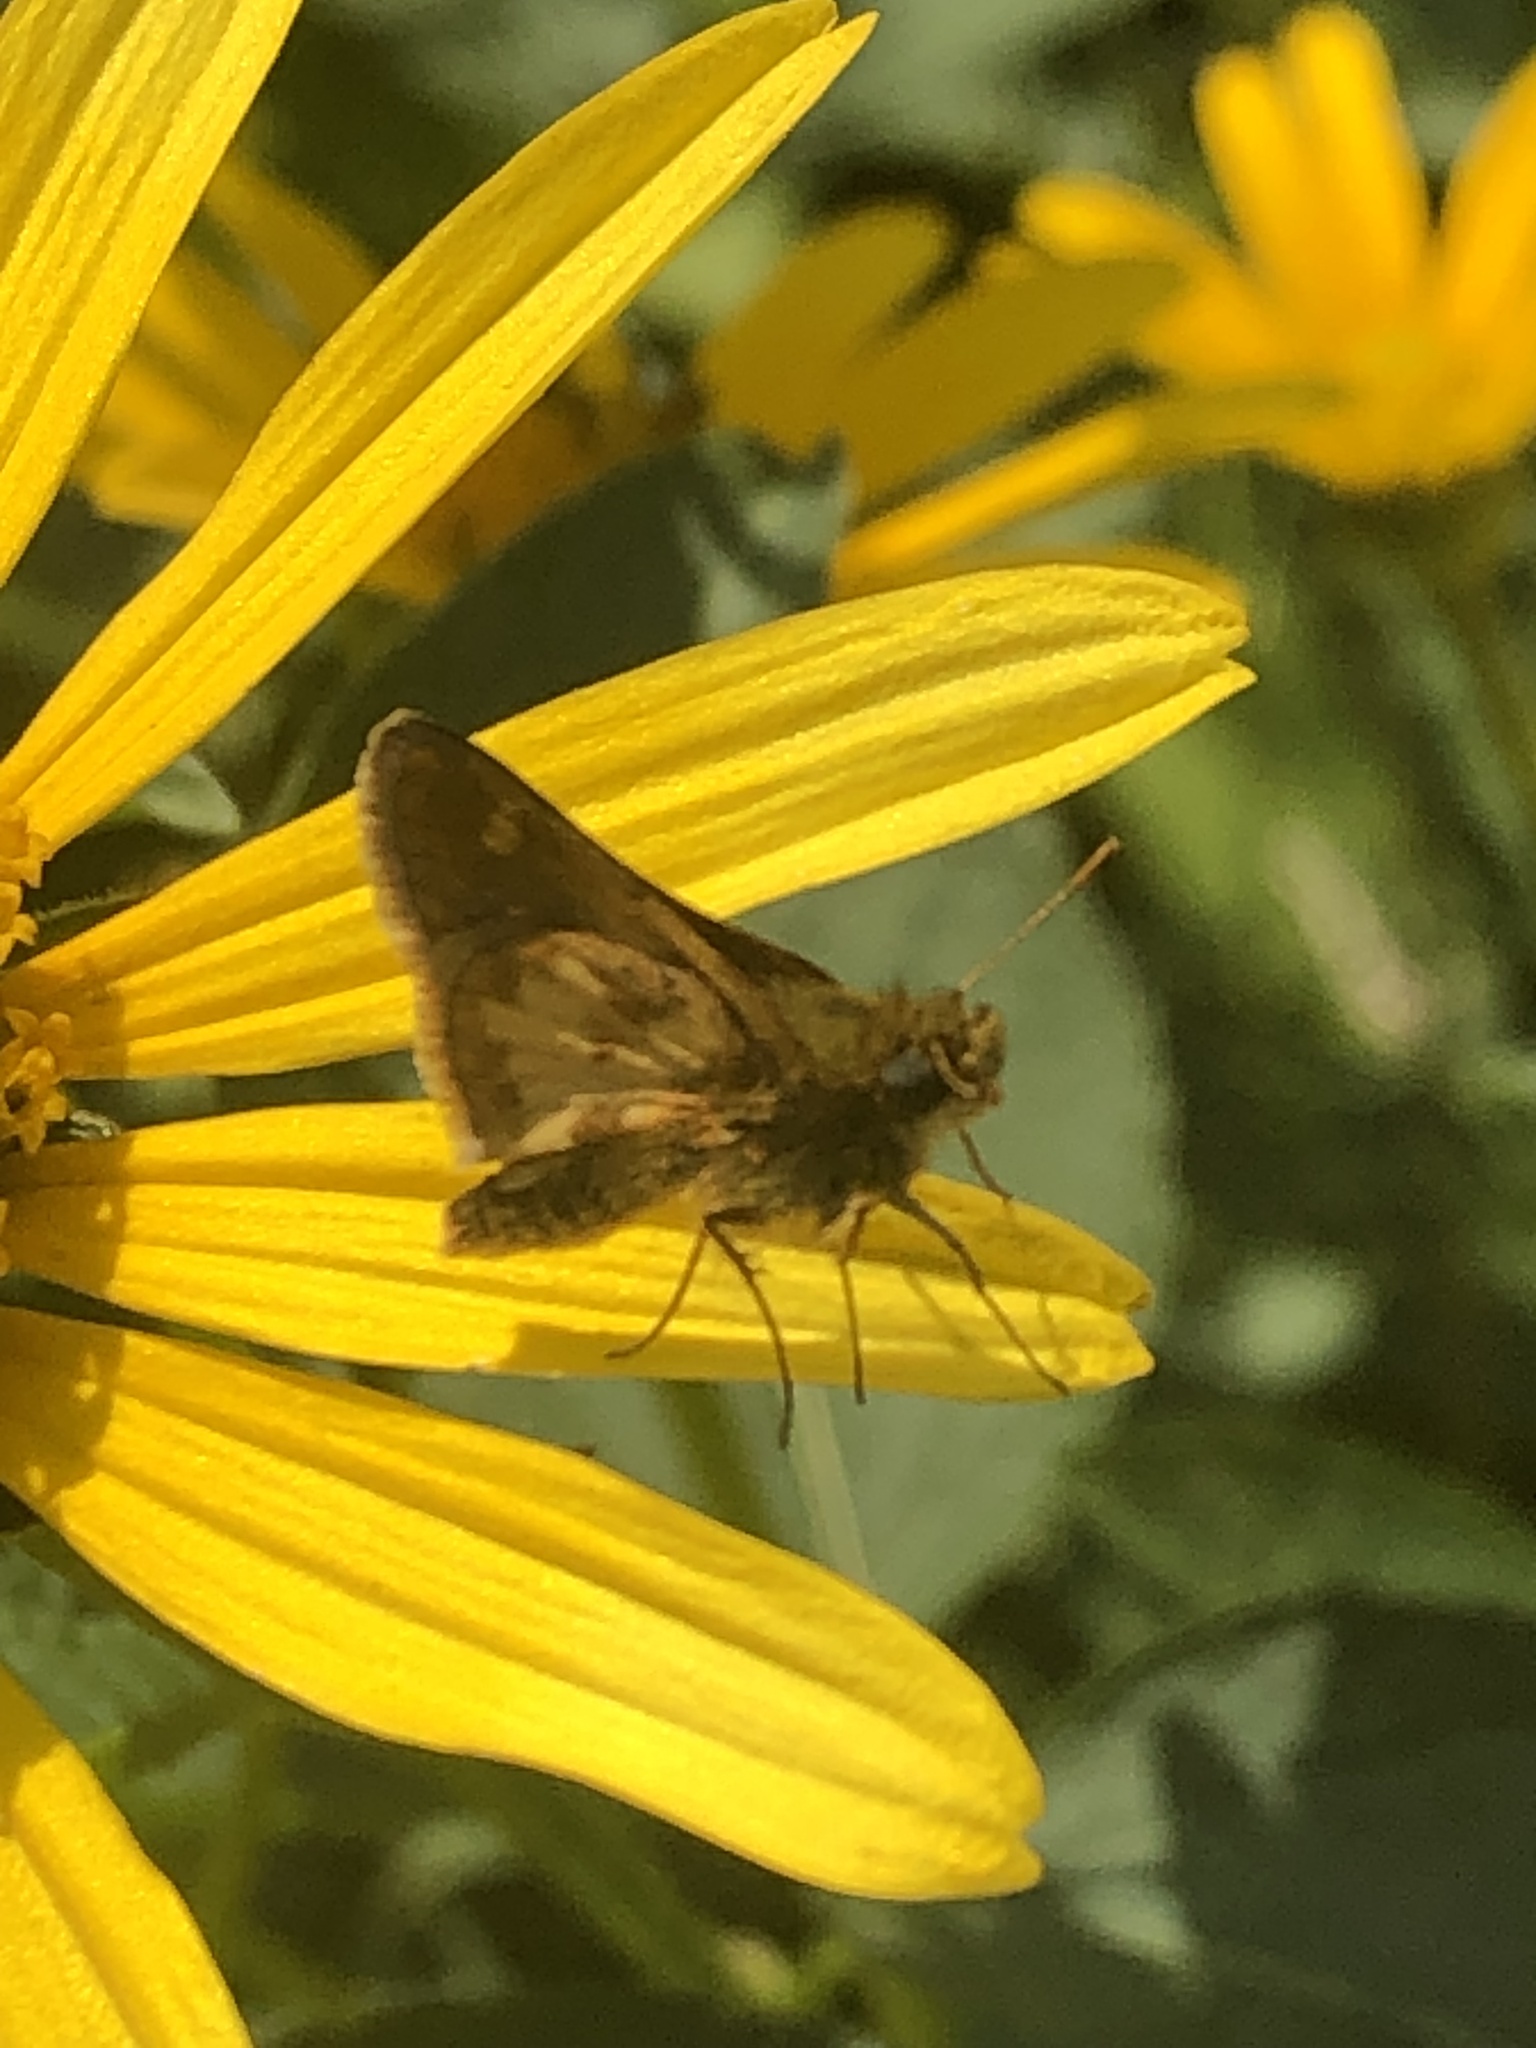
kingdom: Animalia
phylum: Arthropoda
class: Insecta
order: Lepidoptera
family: Hesperiidae
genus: Polites
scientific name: Polites coras
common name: Peck's skipper
